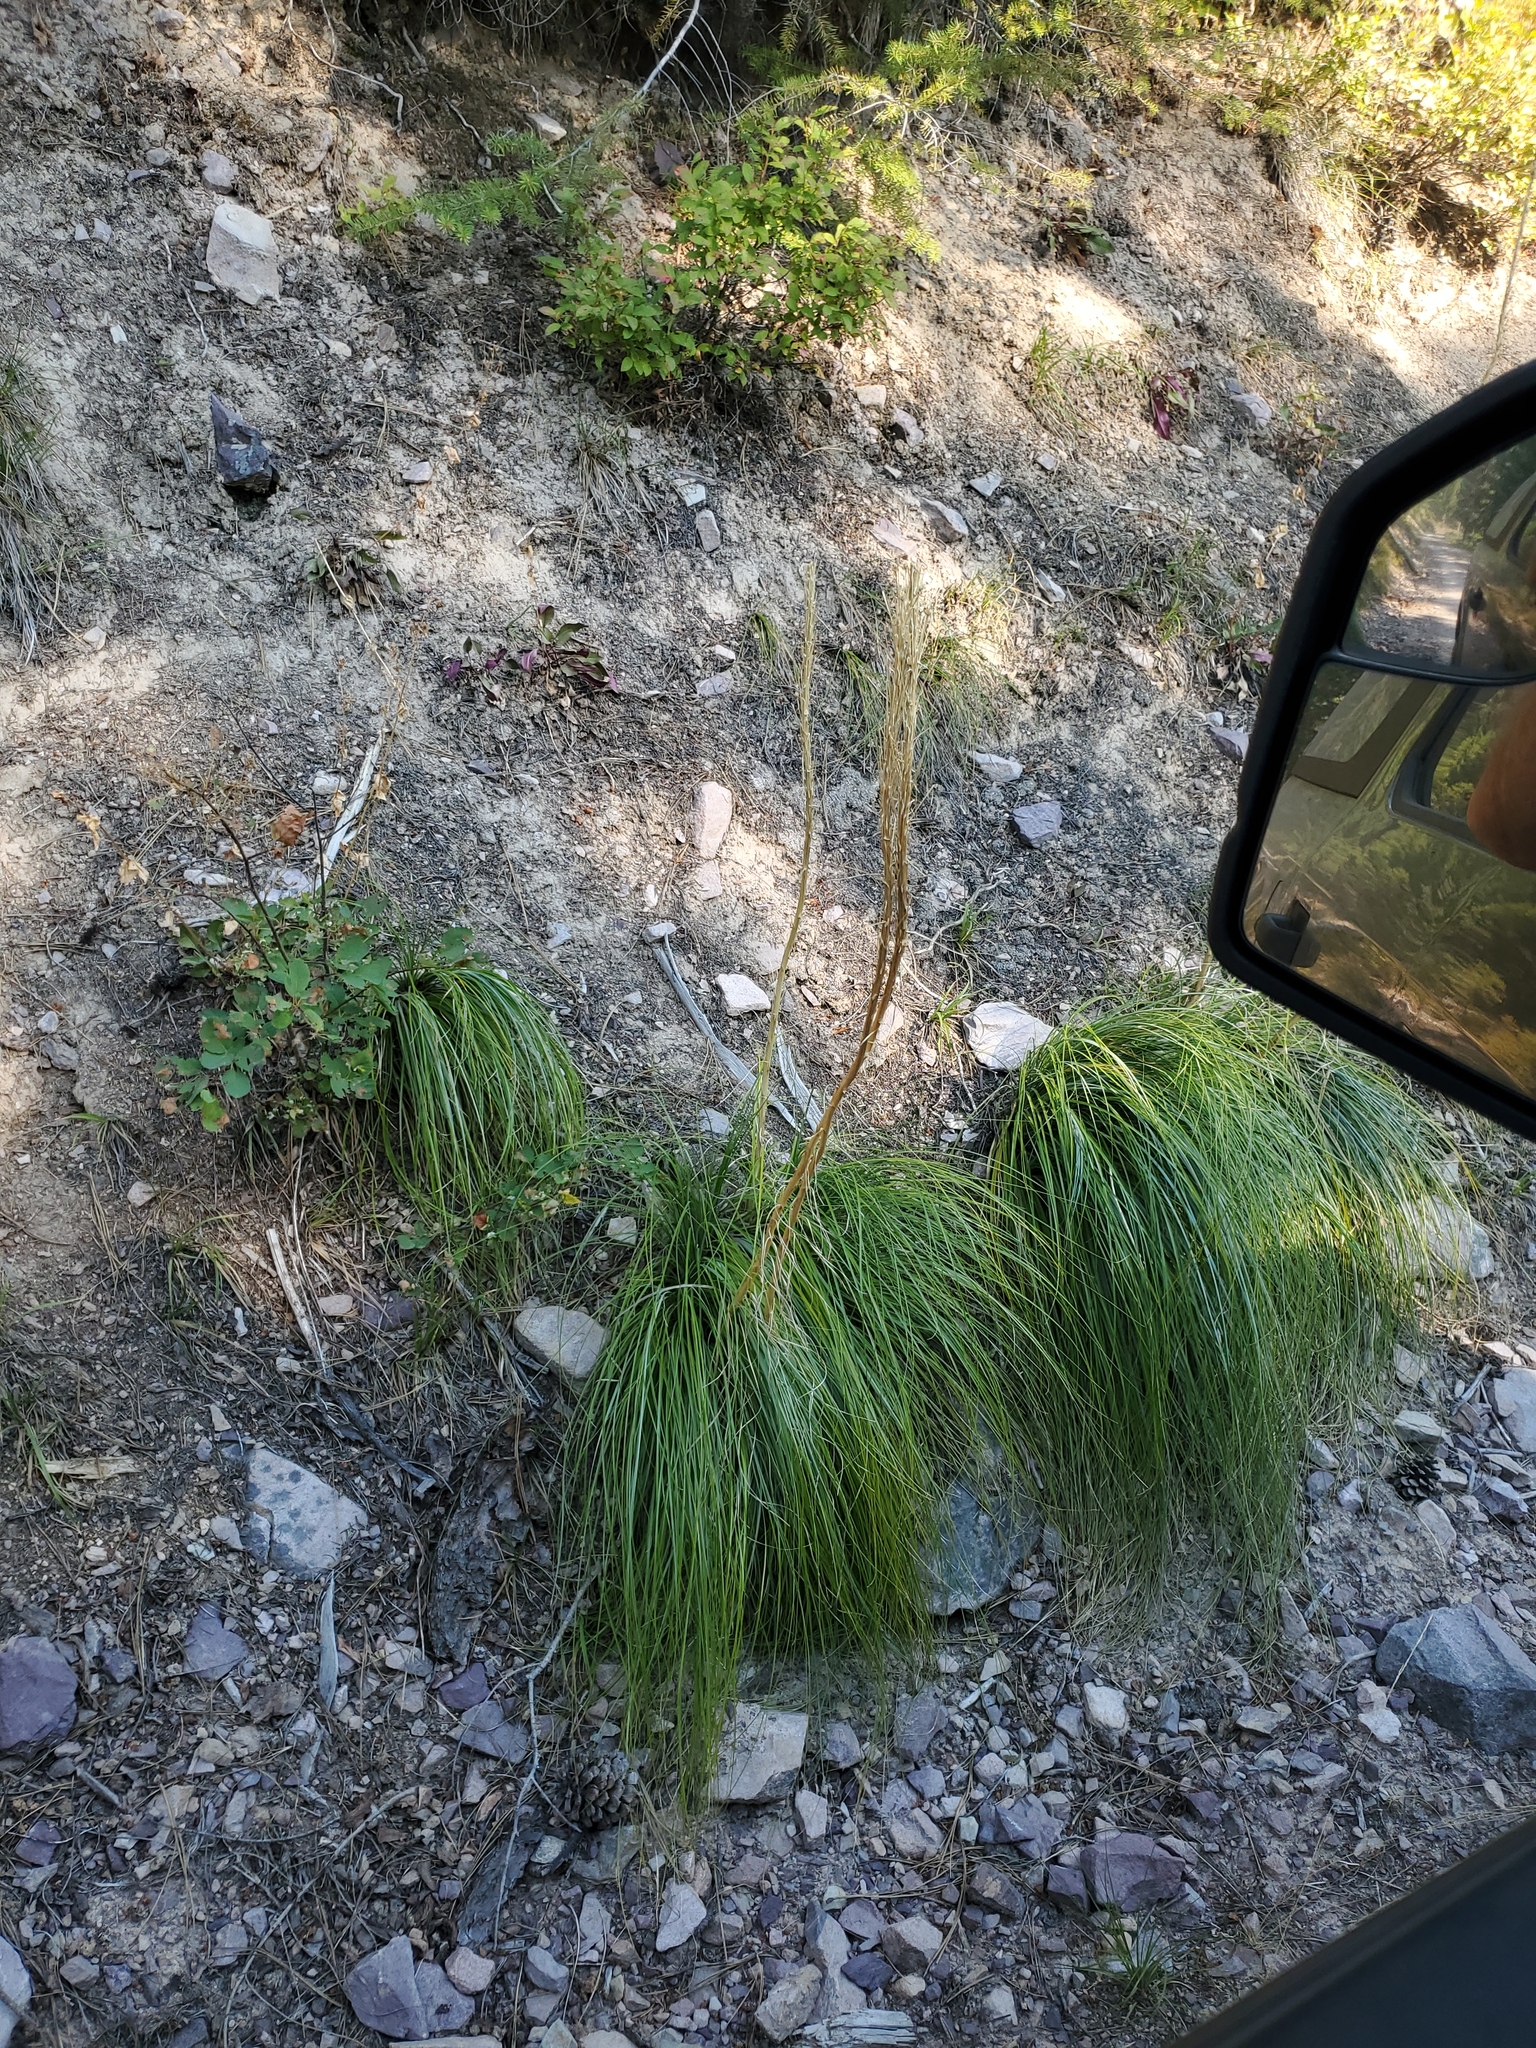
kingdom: Plantae
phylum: Tracheophyta
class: Liliopsida
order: Liliales
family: Melanthiaceae
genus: Xerophyllum
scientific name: Xerophyllum tenax
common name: Bear-grass
